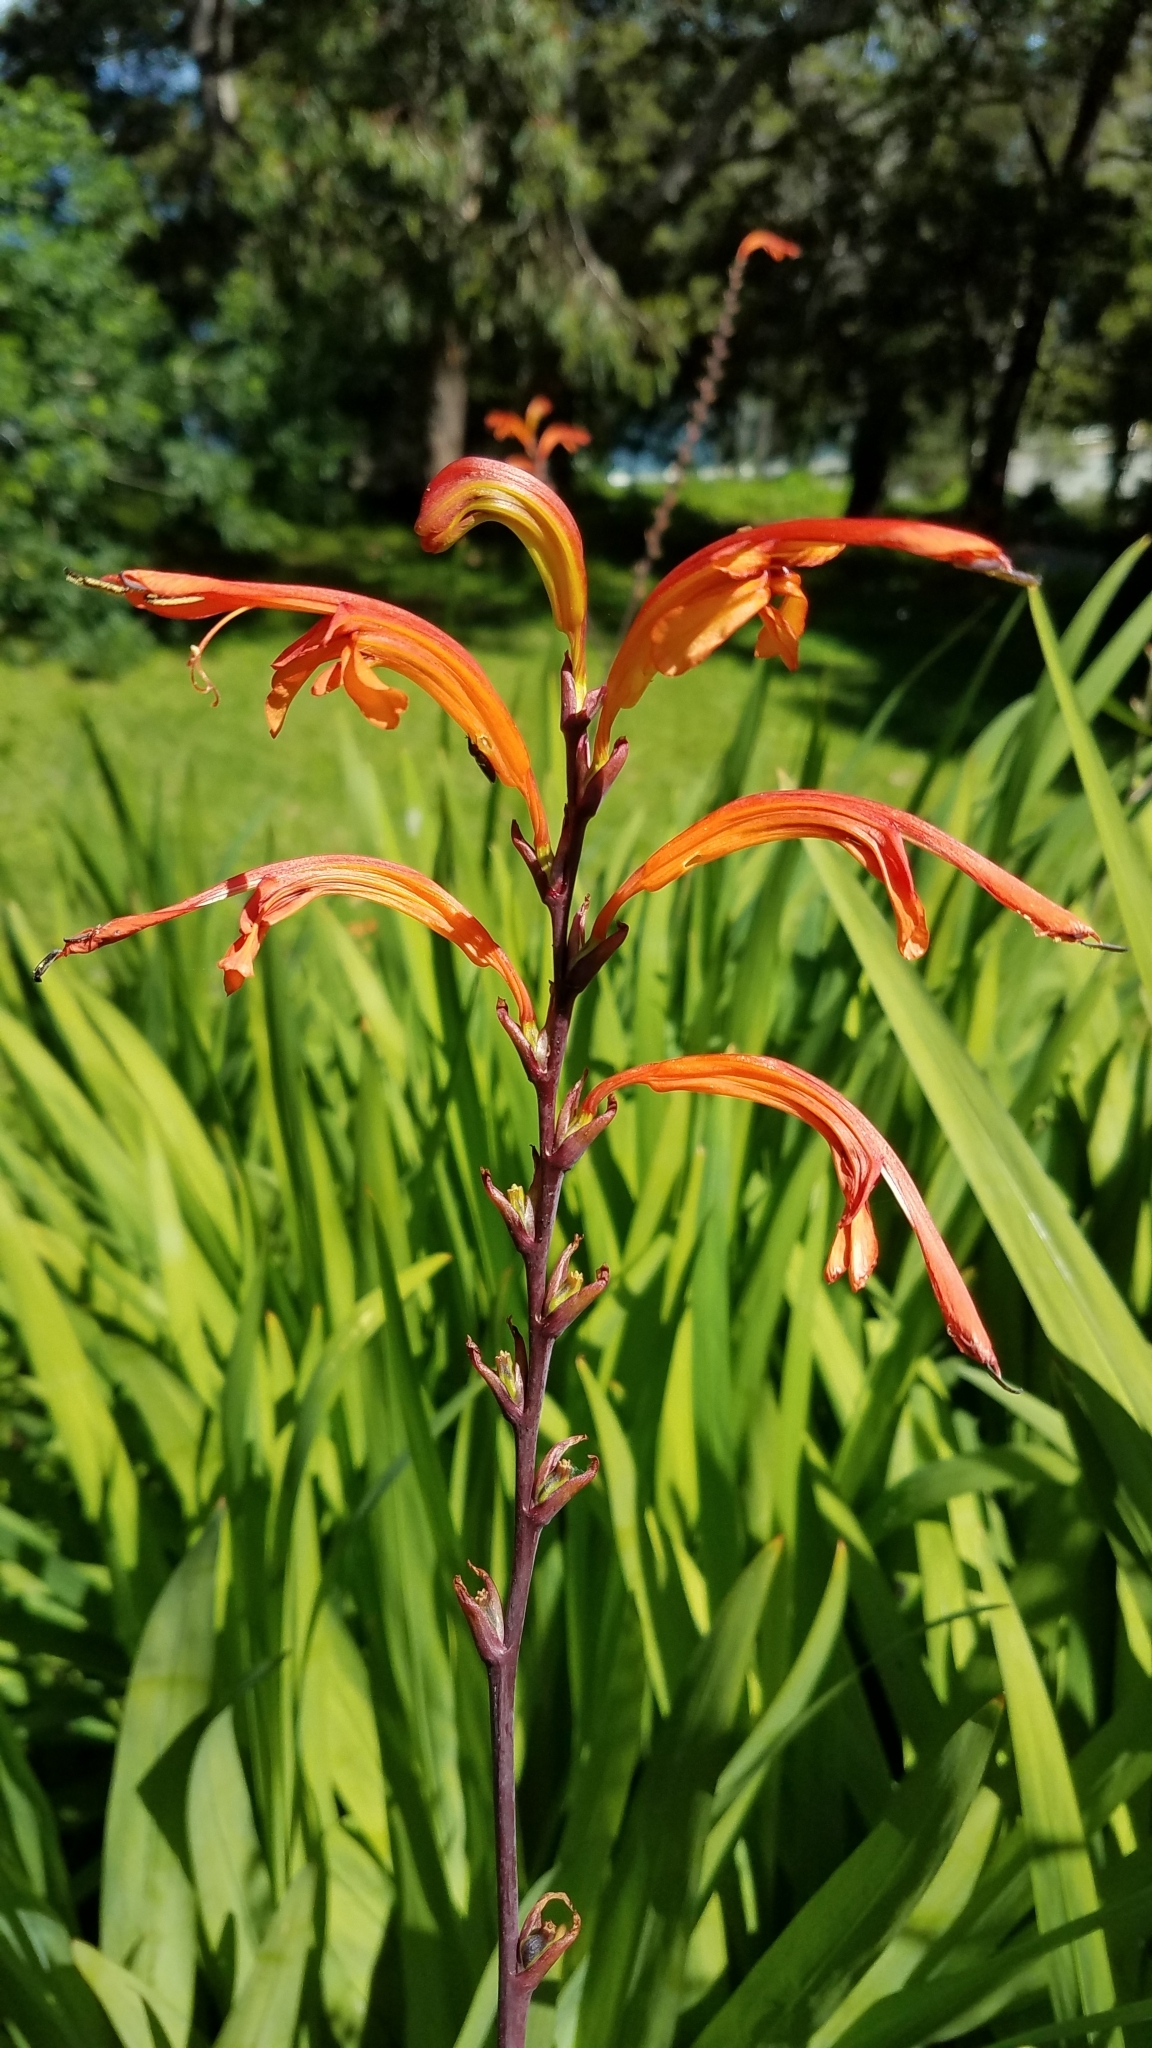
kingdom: Plantae
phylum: Tracheophyta
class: Liliopsida
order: Asparagales
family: Iridaceae
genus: Chasmanthe
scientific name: Chasmanthe floribunda
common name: African cornflag
